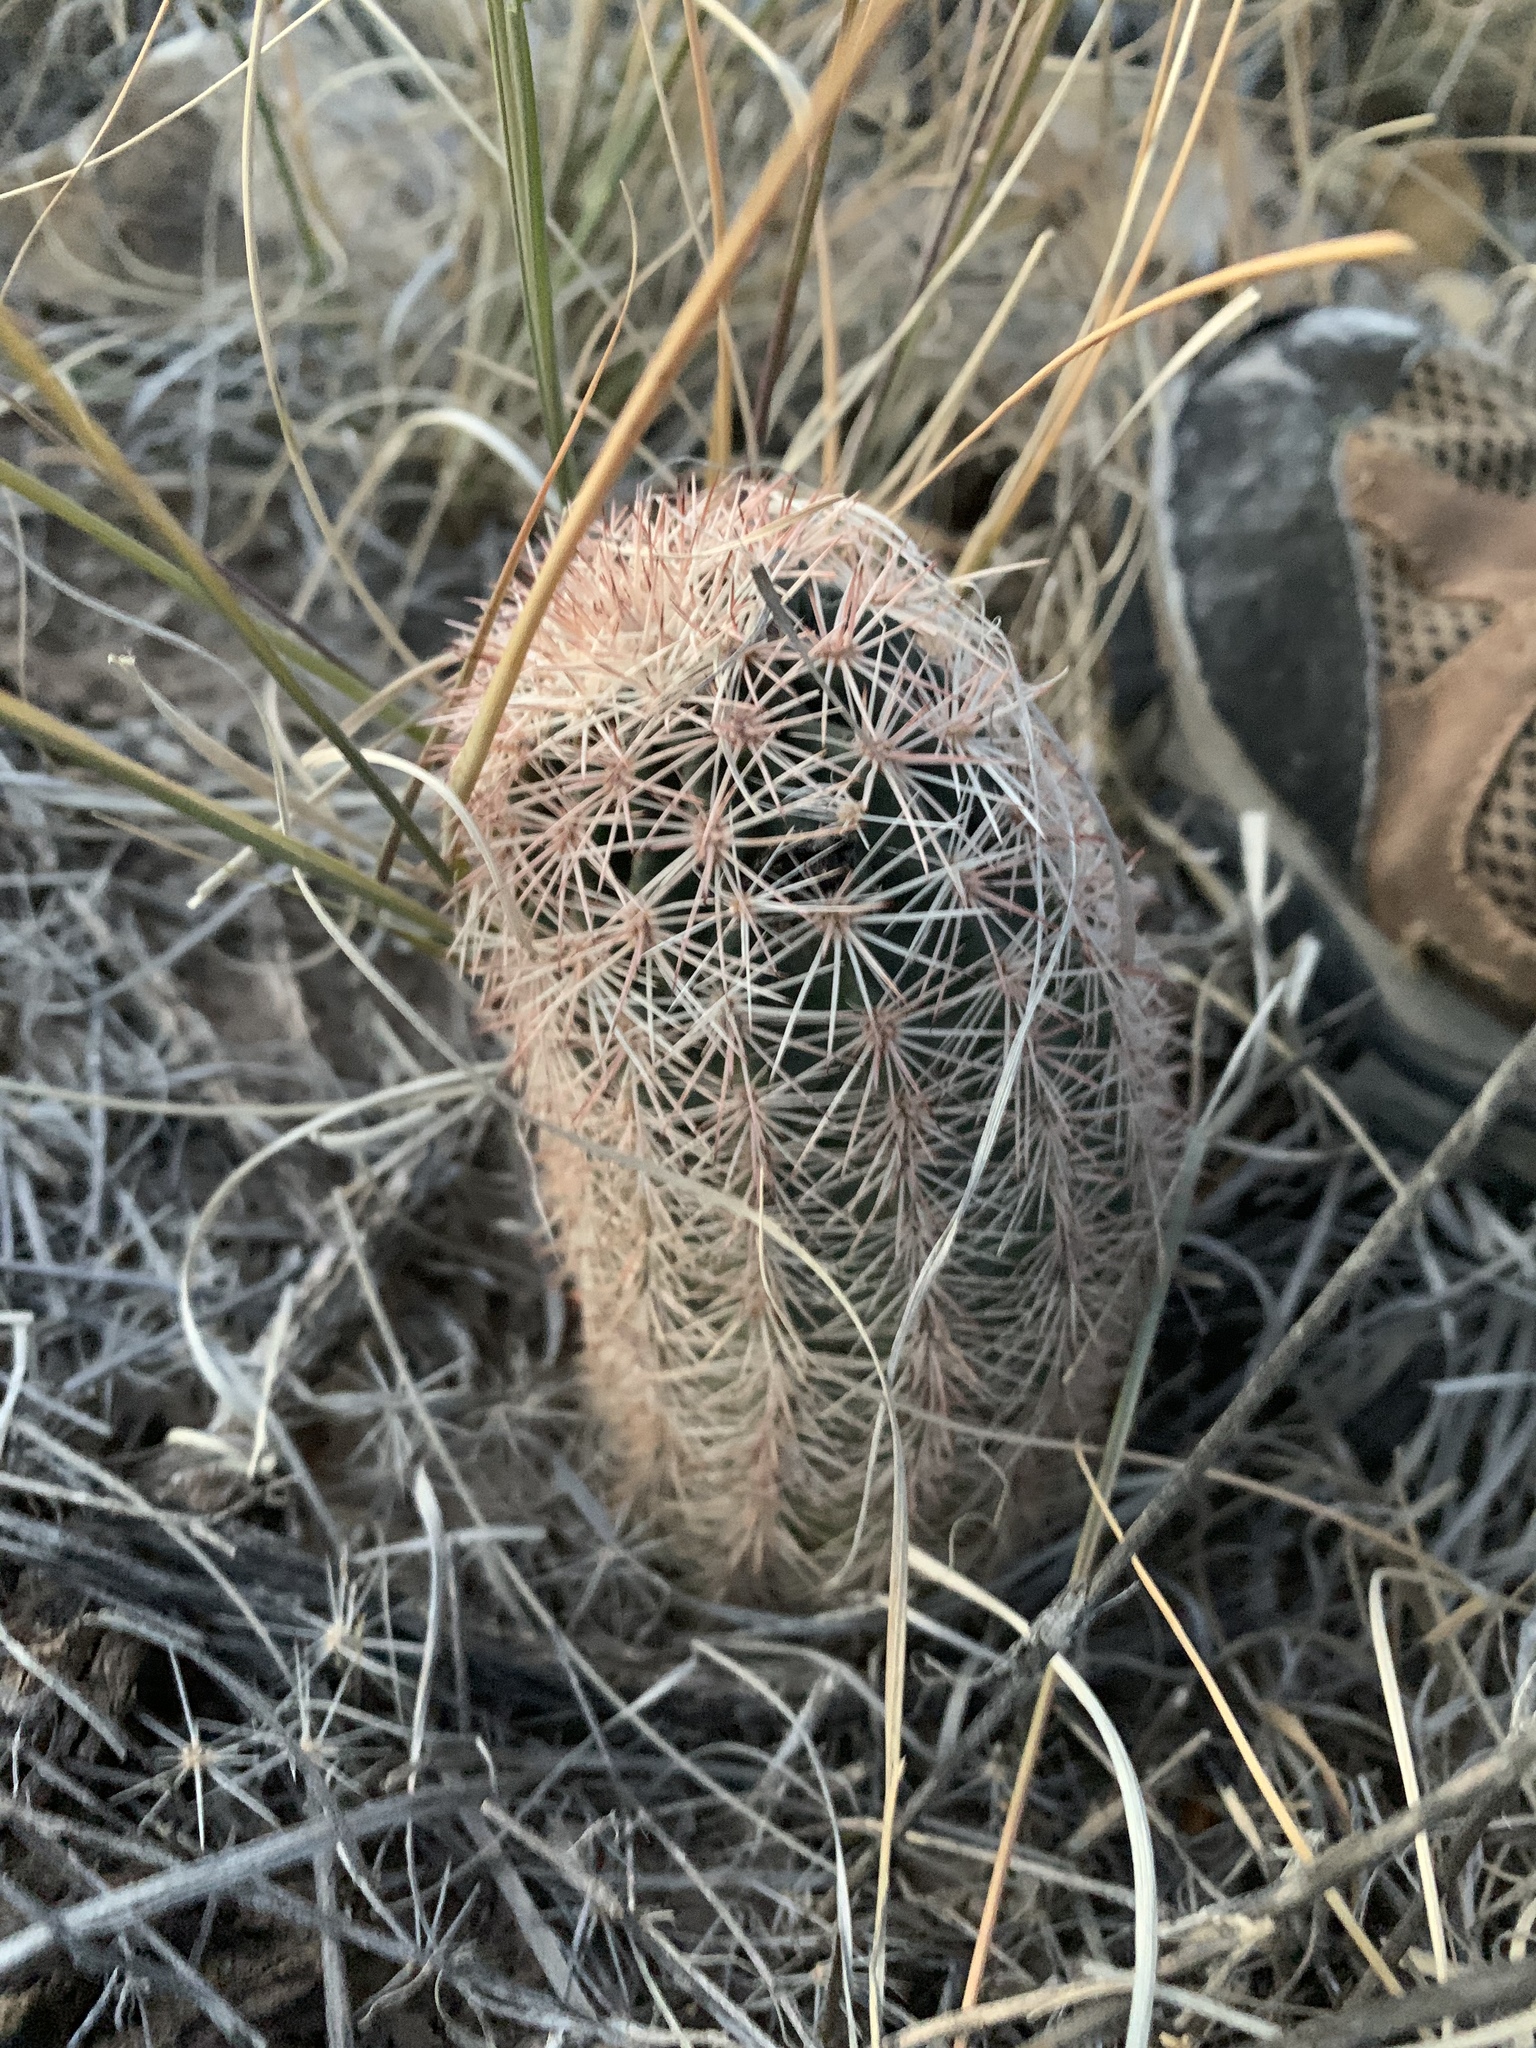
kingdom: Plantae
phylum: Tracheophyta
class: Magnoliopsida
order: Caryophyllales
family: Cactaceae
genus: Echinocereus
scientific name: Echinocereus dasyacanthus
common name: Spiny hedgehog cactus
